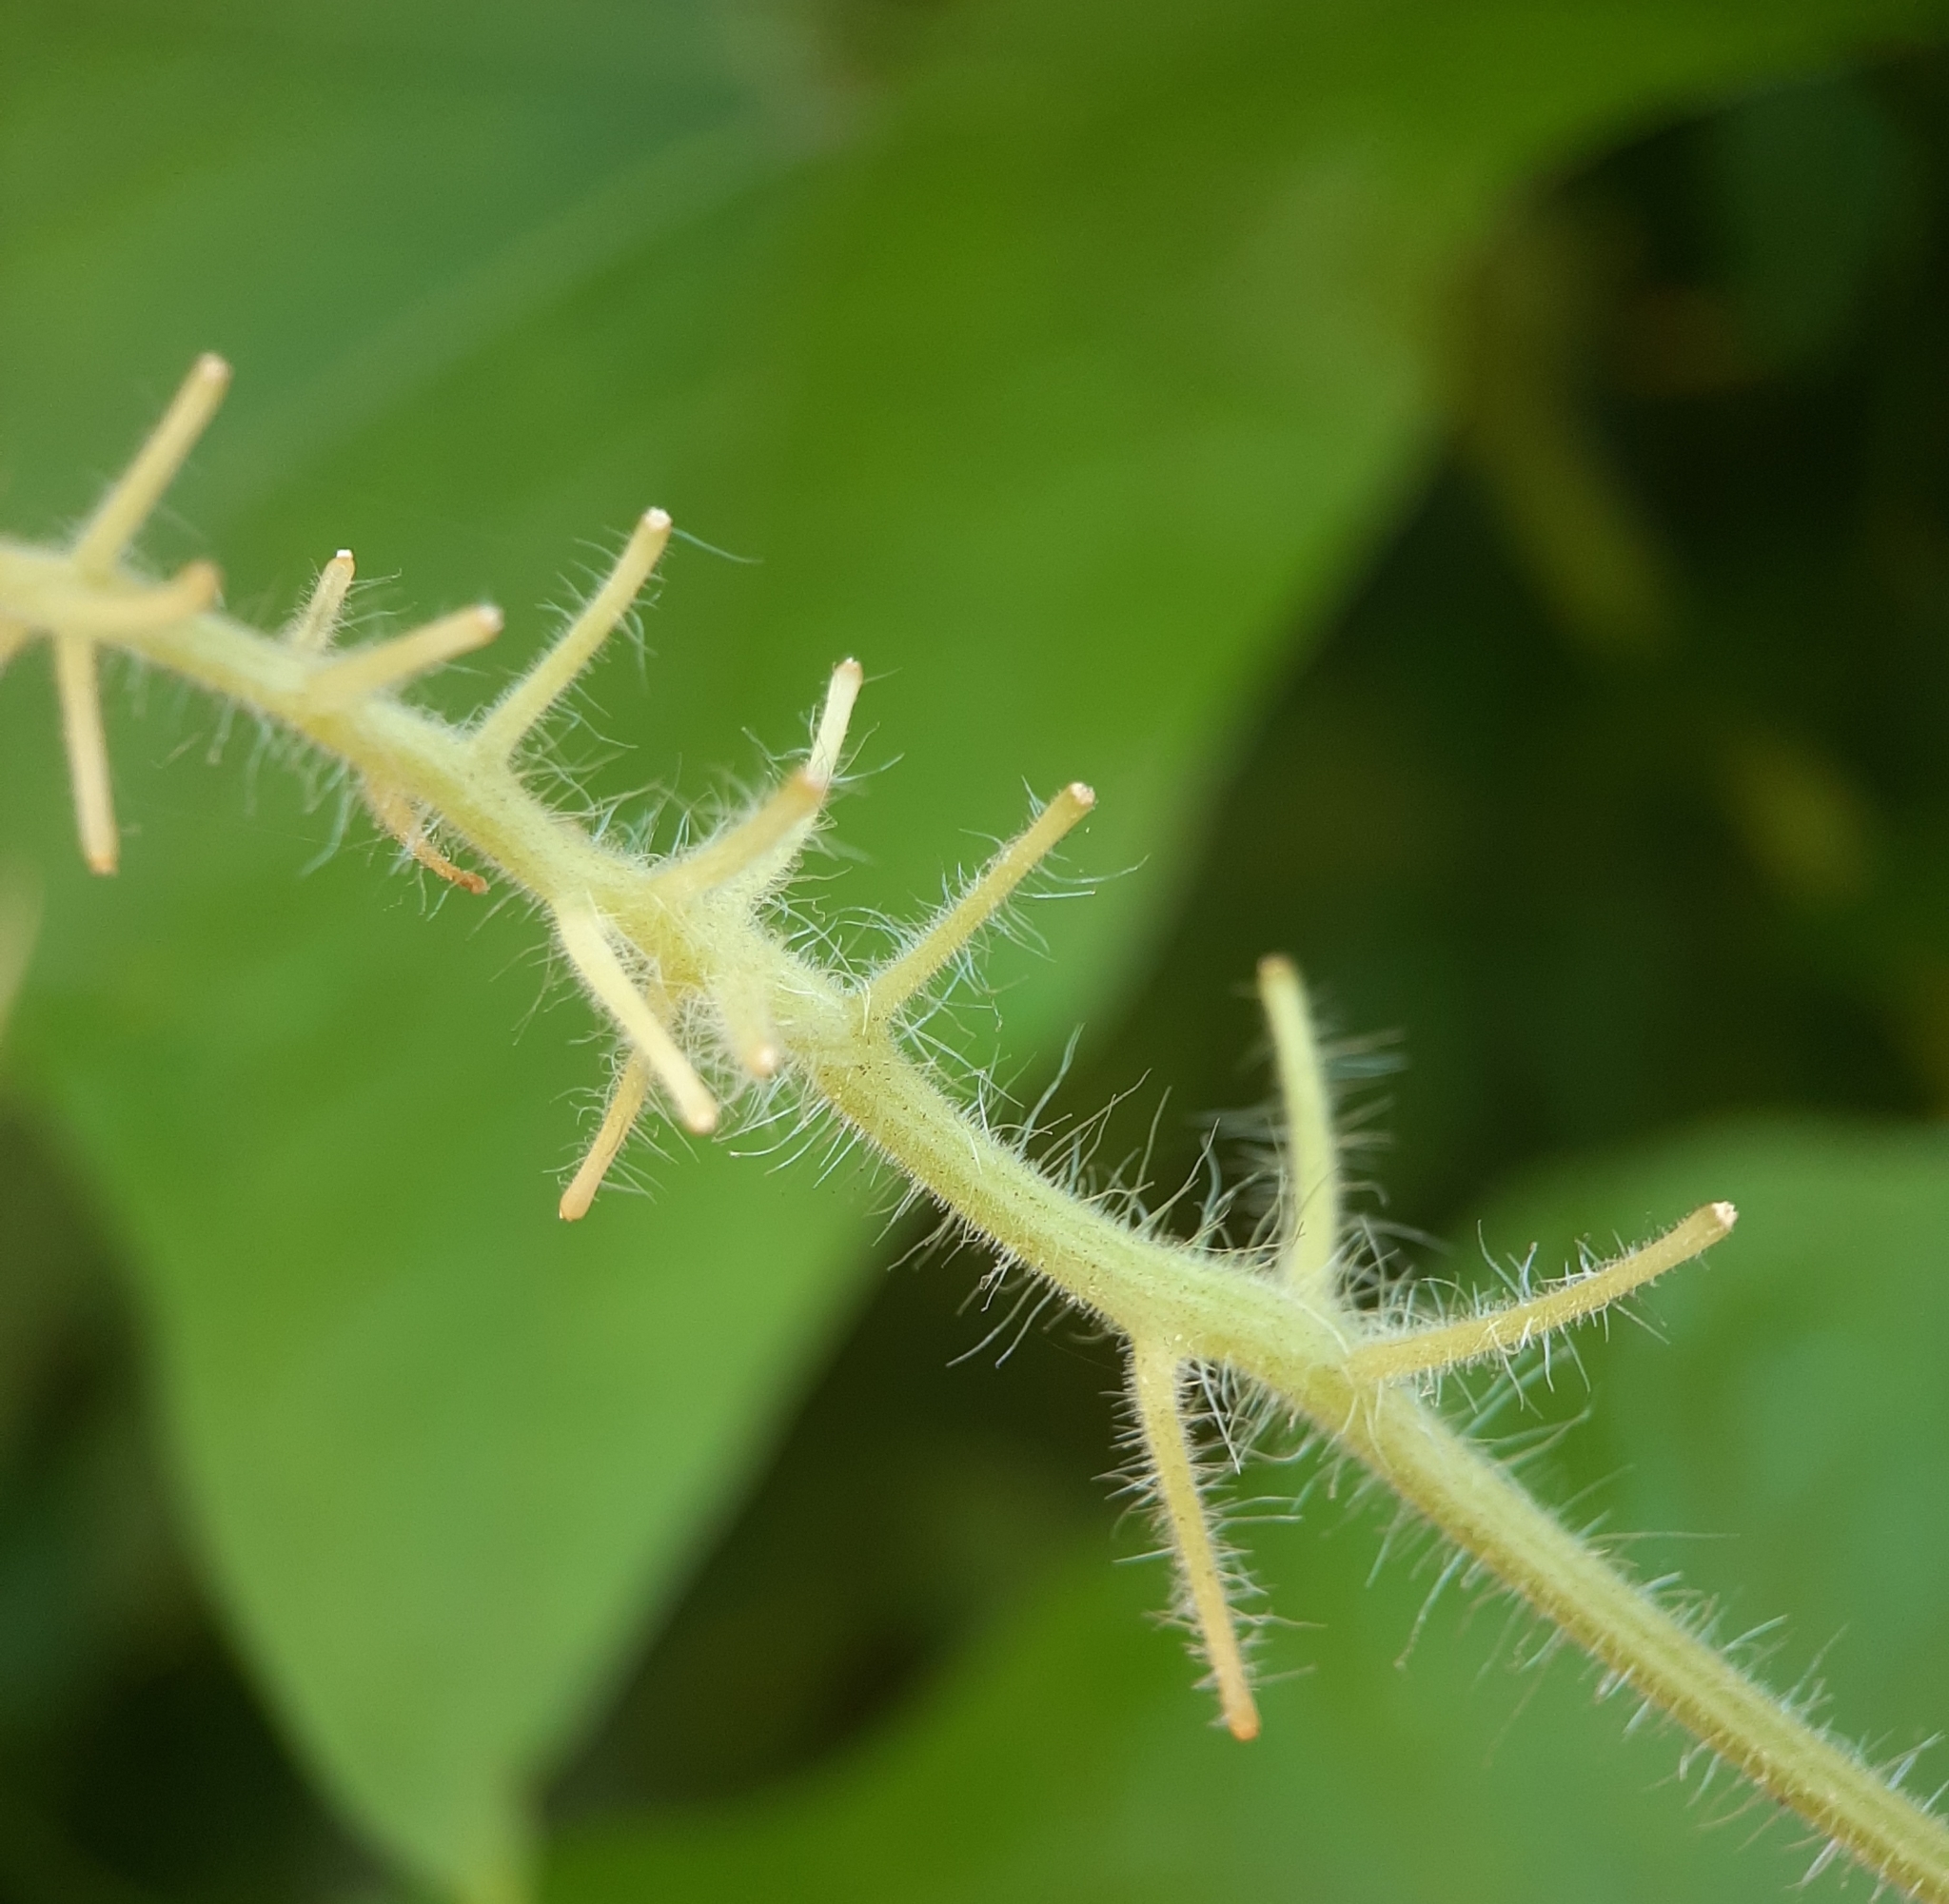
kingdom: Plantae
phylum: Tracheophyta
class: Magnoliopsida
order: Cucurbitales
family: Cucurbitaceae
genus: Sicyos
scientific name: Sicyos angulatus
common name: Angled burr cucumber
